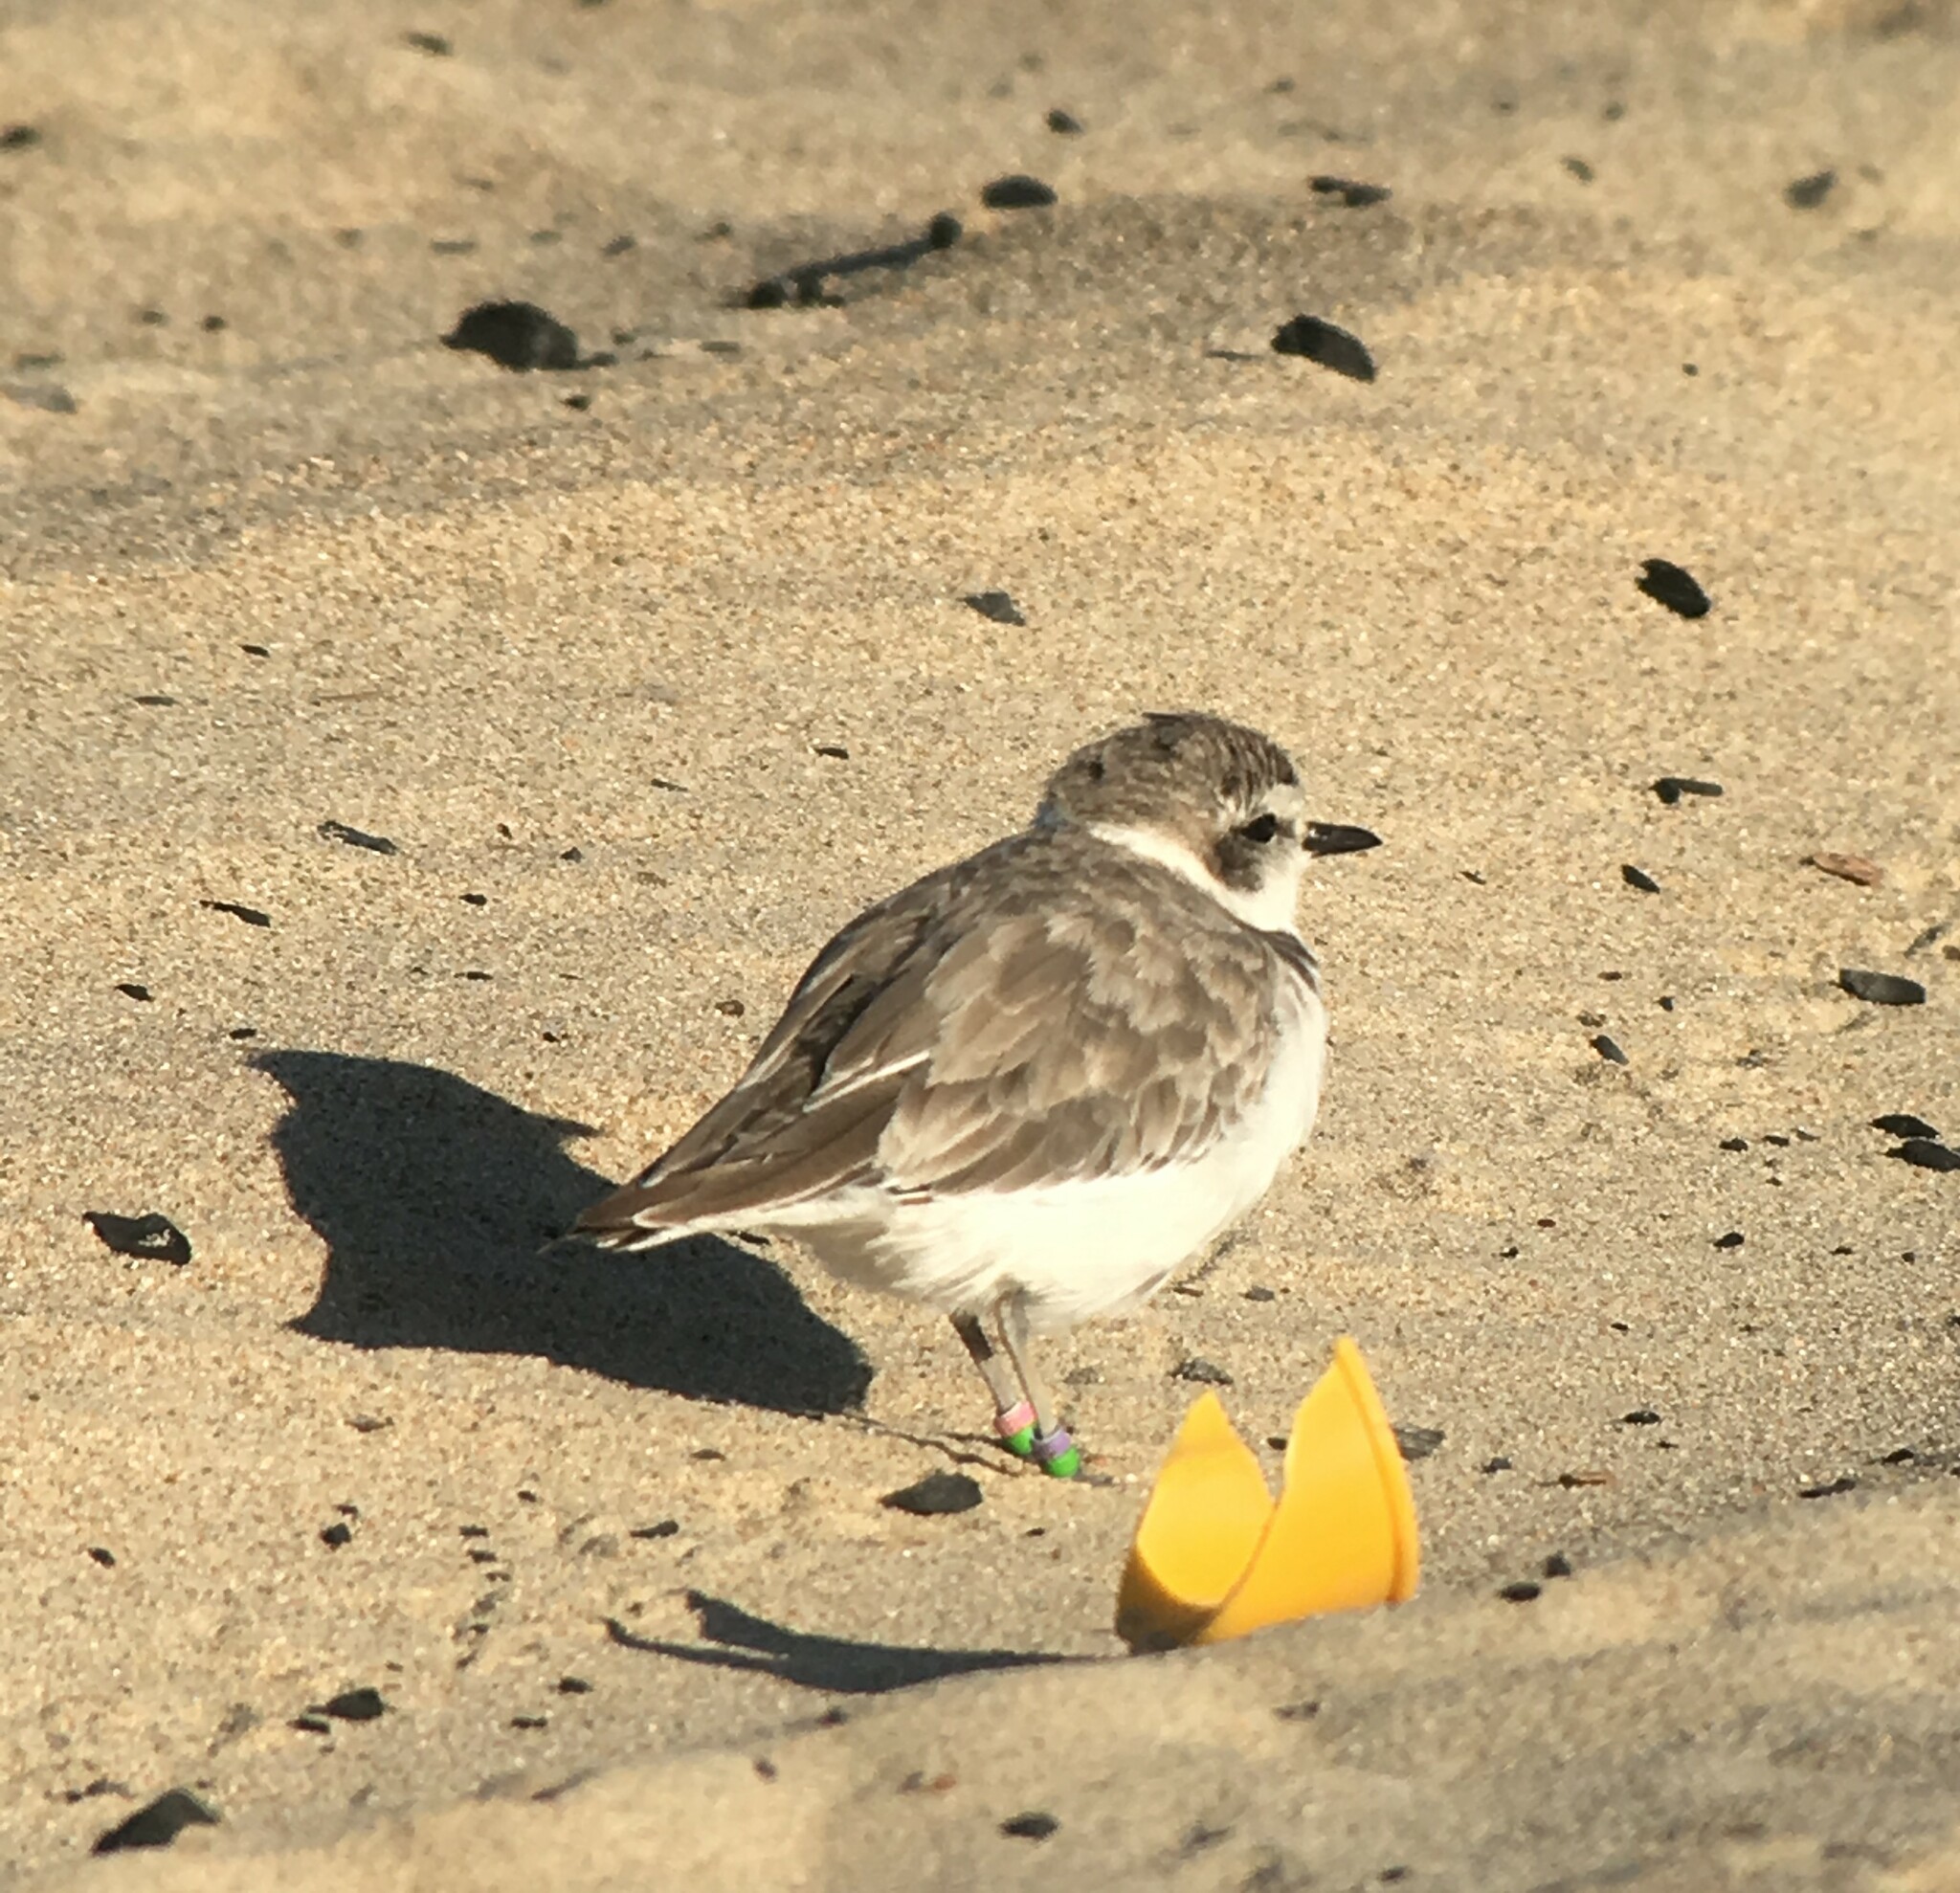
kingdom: Animalia
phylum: Chordata
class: Aves
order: Charadriiformes
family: Charadriidae
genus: Anarhynchus
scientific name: Anarhynchus
